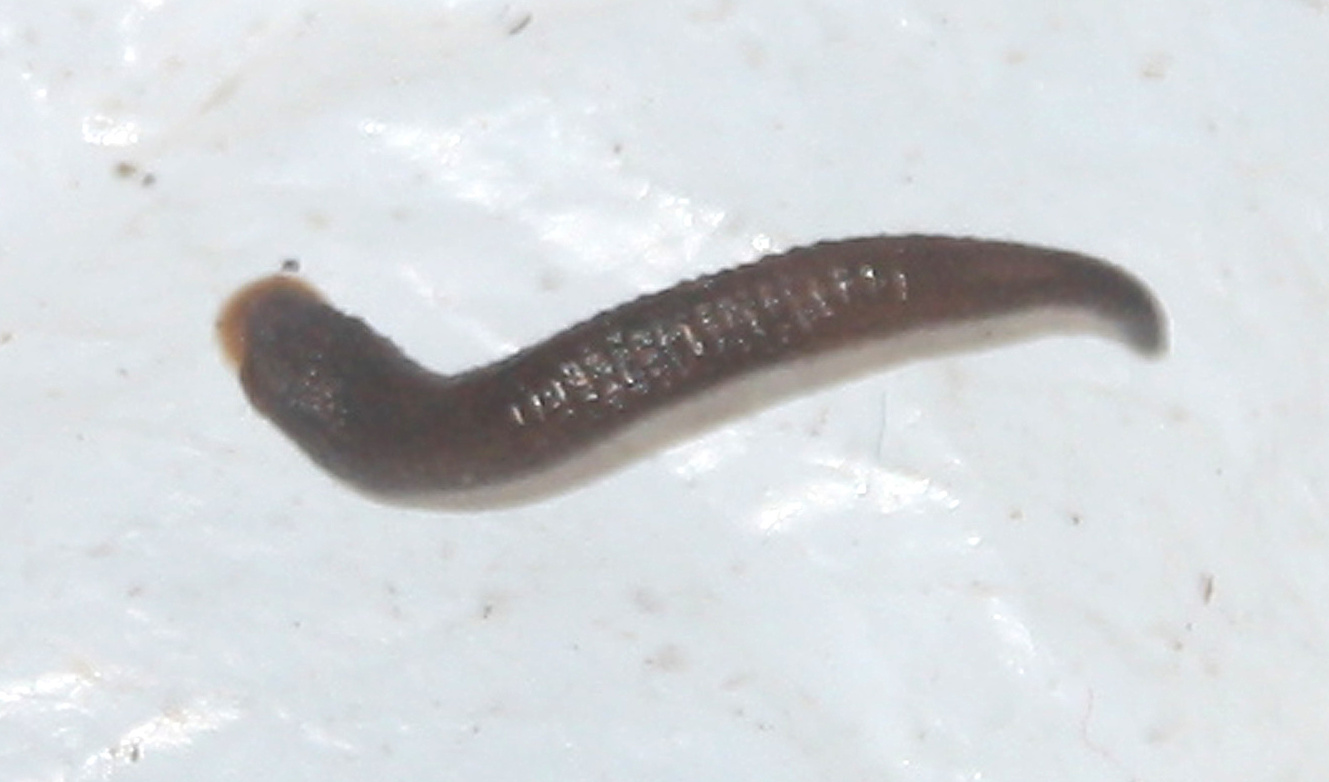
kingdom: Animalia
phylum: Annelida
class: Clitellata
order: Arhynchobdellida
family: Haemadipsidae
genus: Mesobdella
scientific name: Mesobdella gemmata
